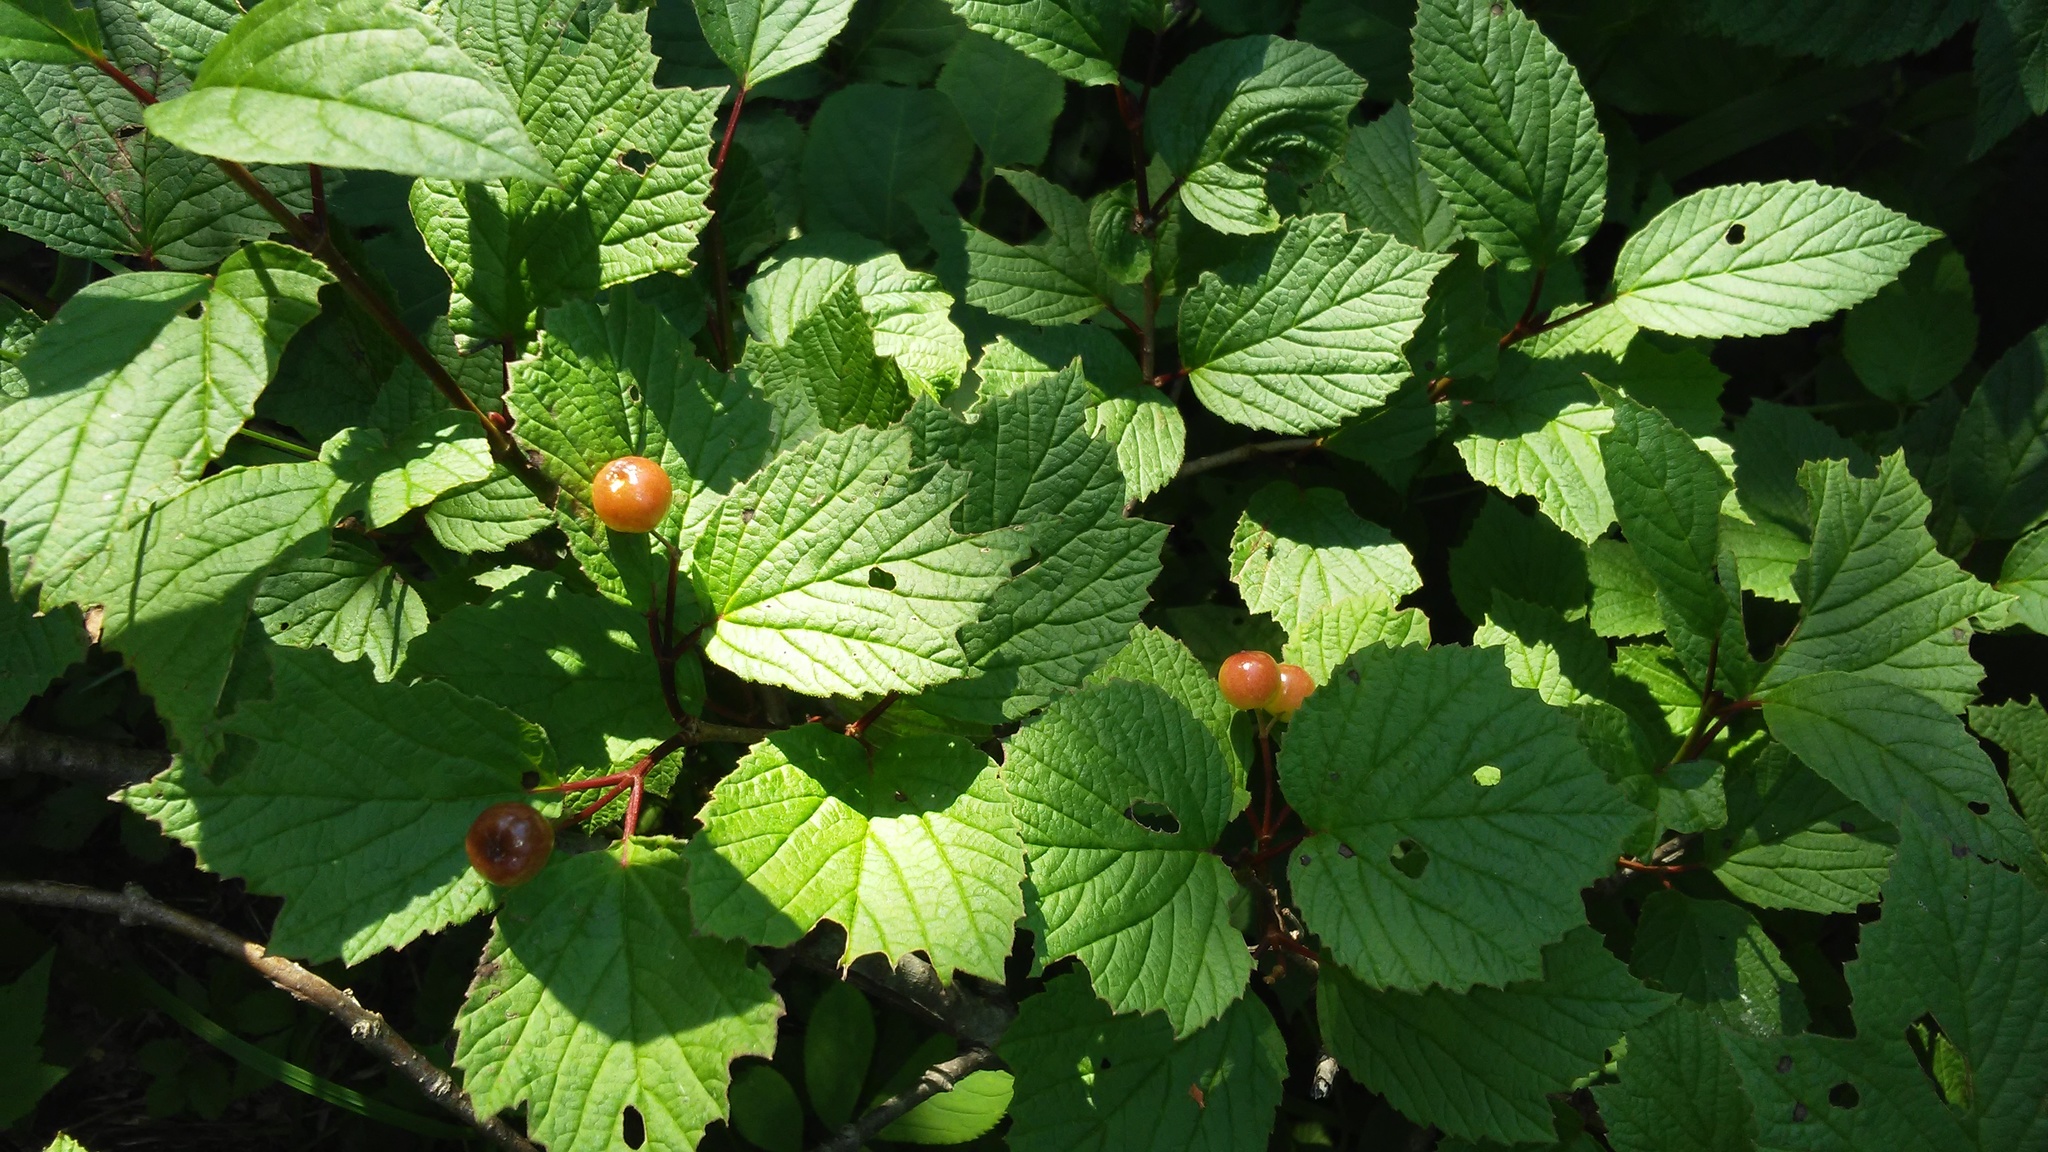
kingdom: Plantae
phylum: Tracheophyta
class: Magnoliopsida
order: Dipsacales
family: Viburnaceae
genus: Viburnum
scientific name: Viburnum edule
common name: Mooseberry
